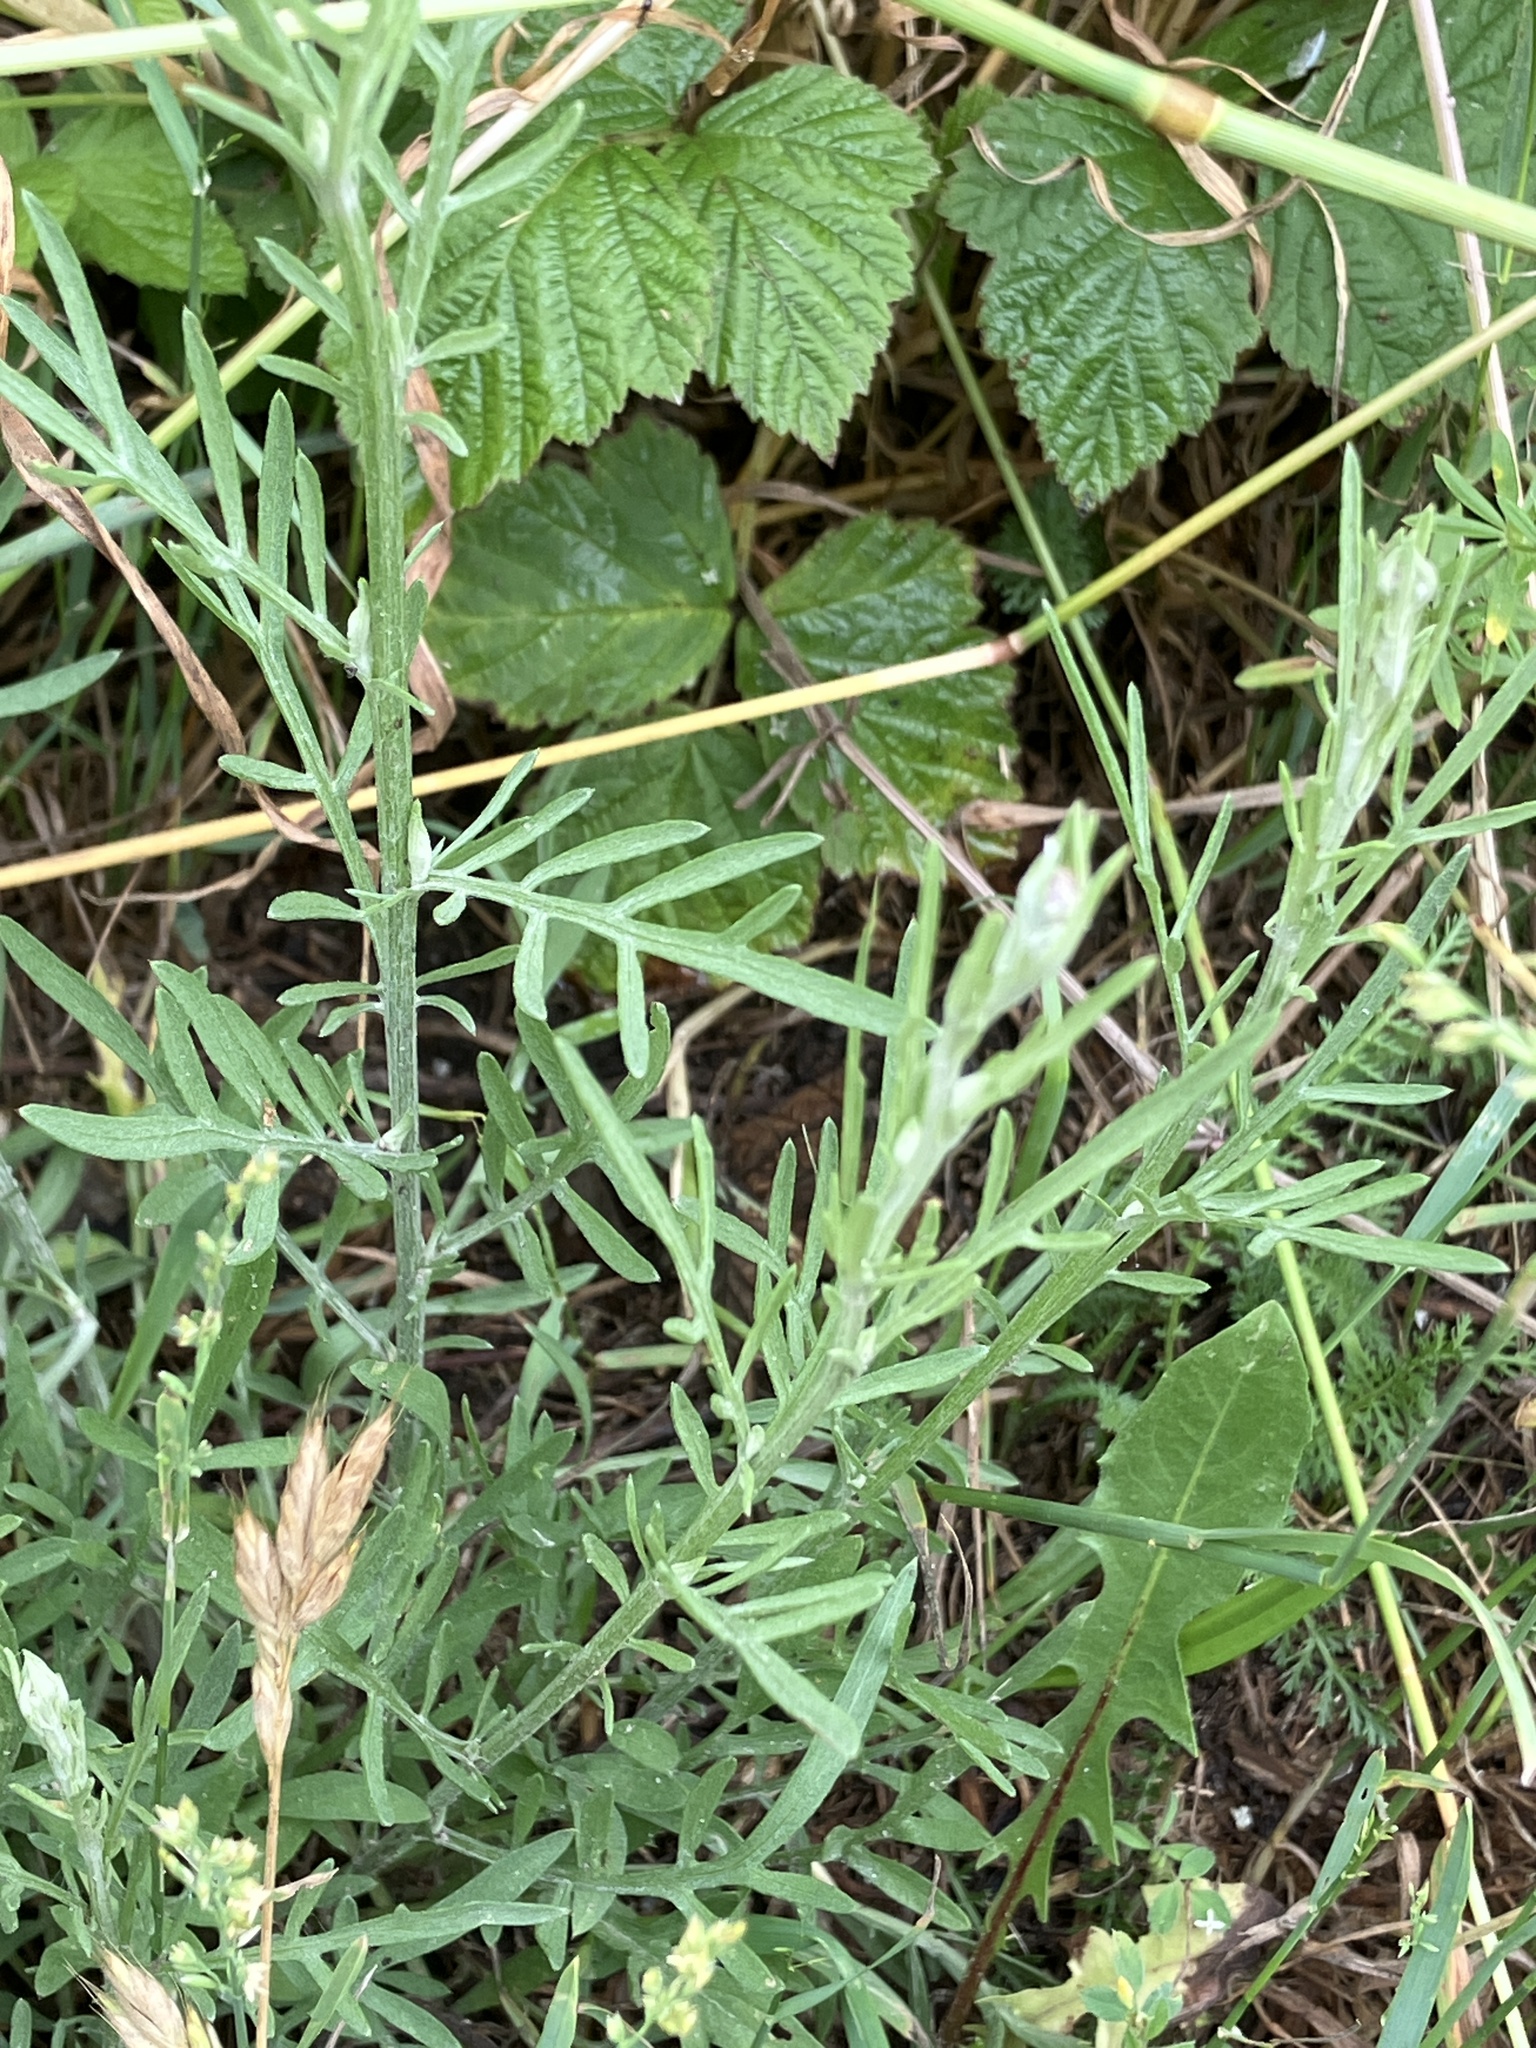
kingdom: Plantae
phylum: Tracheophyta
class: Magnoliopsida
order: Asterales
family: Asteraceae
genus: Centaurea
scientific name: Centaurea stoebe
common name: Spotted knapweed
